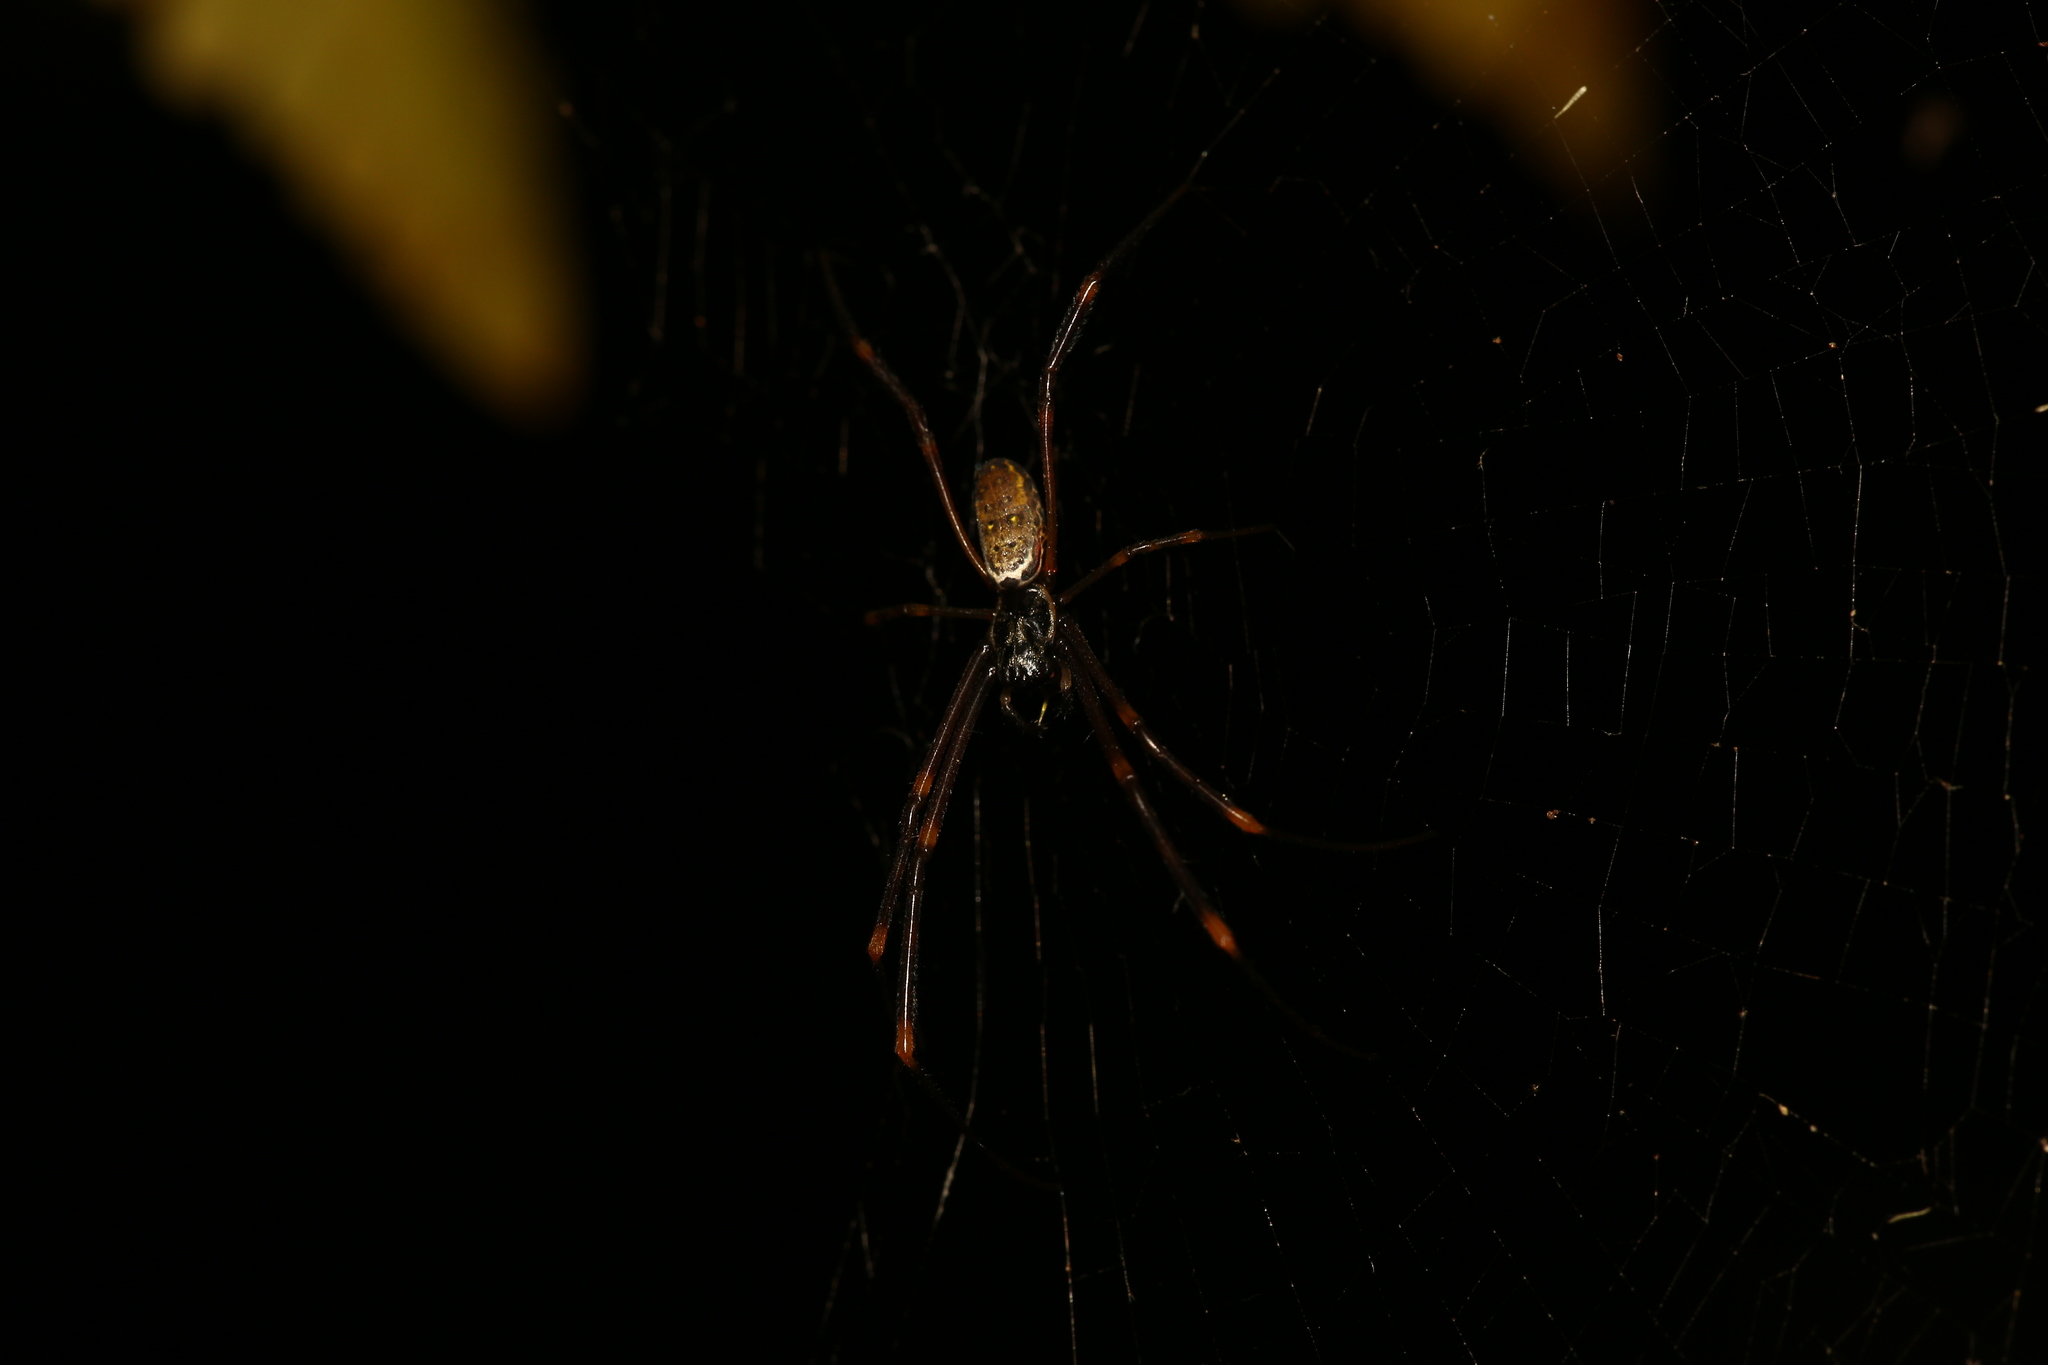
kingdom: Animalia
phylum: Arthropoda
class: Arachnida
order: Araneae
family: Araneidae
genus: Trichonephila
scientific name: Trichonephila plumipes
